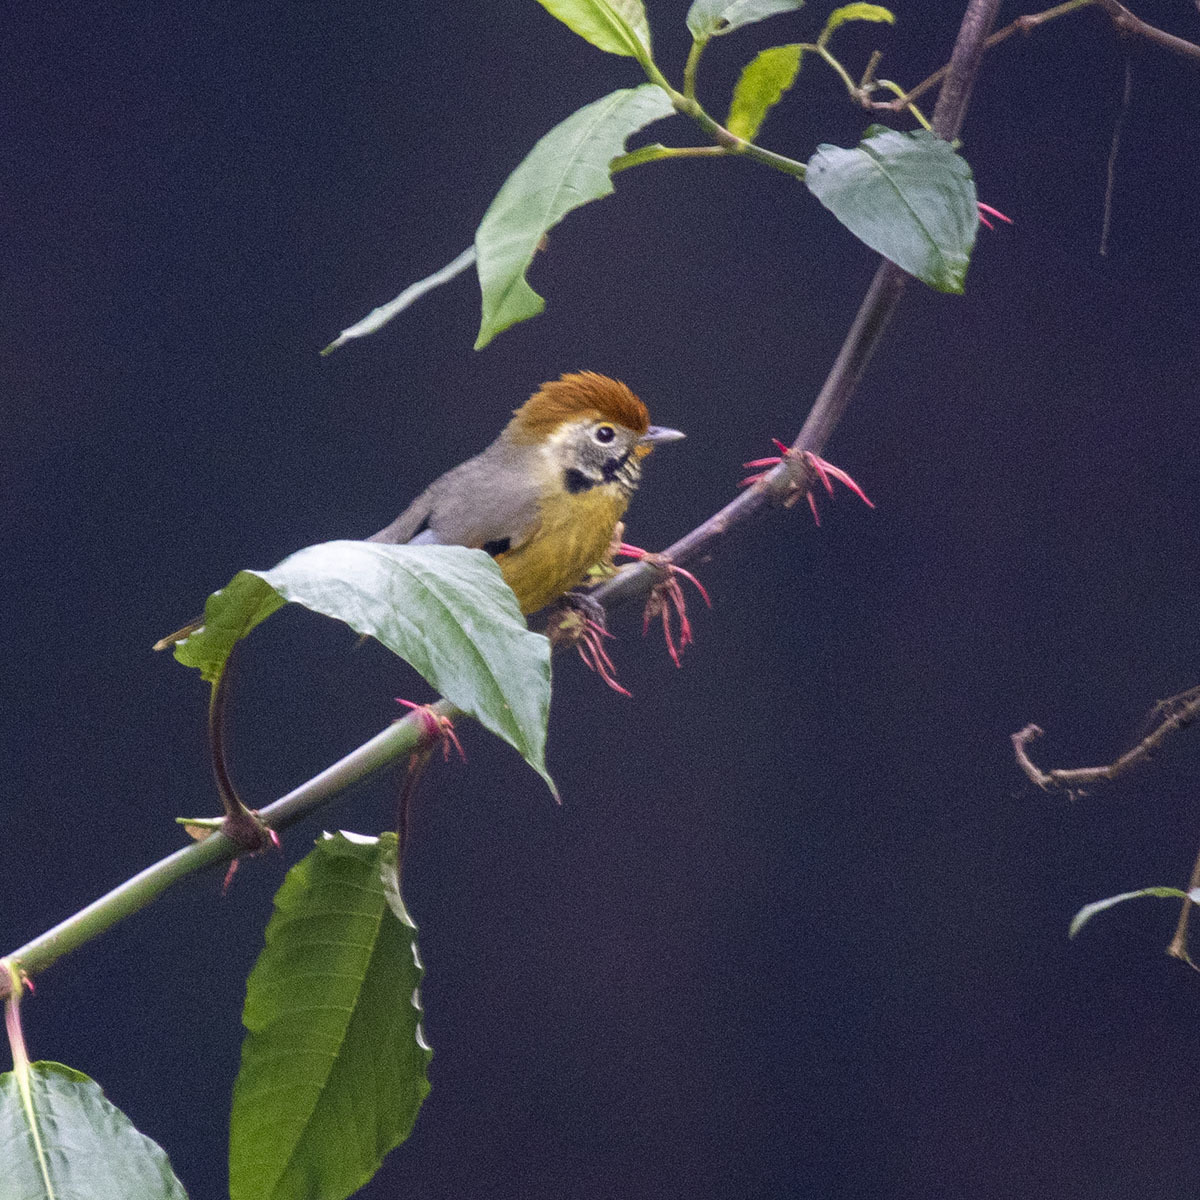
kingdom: Animalia
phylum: Chordata
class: Aves
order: Passeriformes
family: Leiothrichidae
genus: Minla
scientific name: Minla strigula
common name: Chestnut-tailed minla
